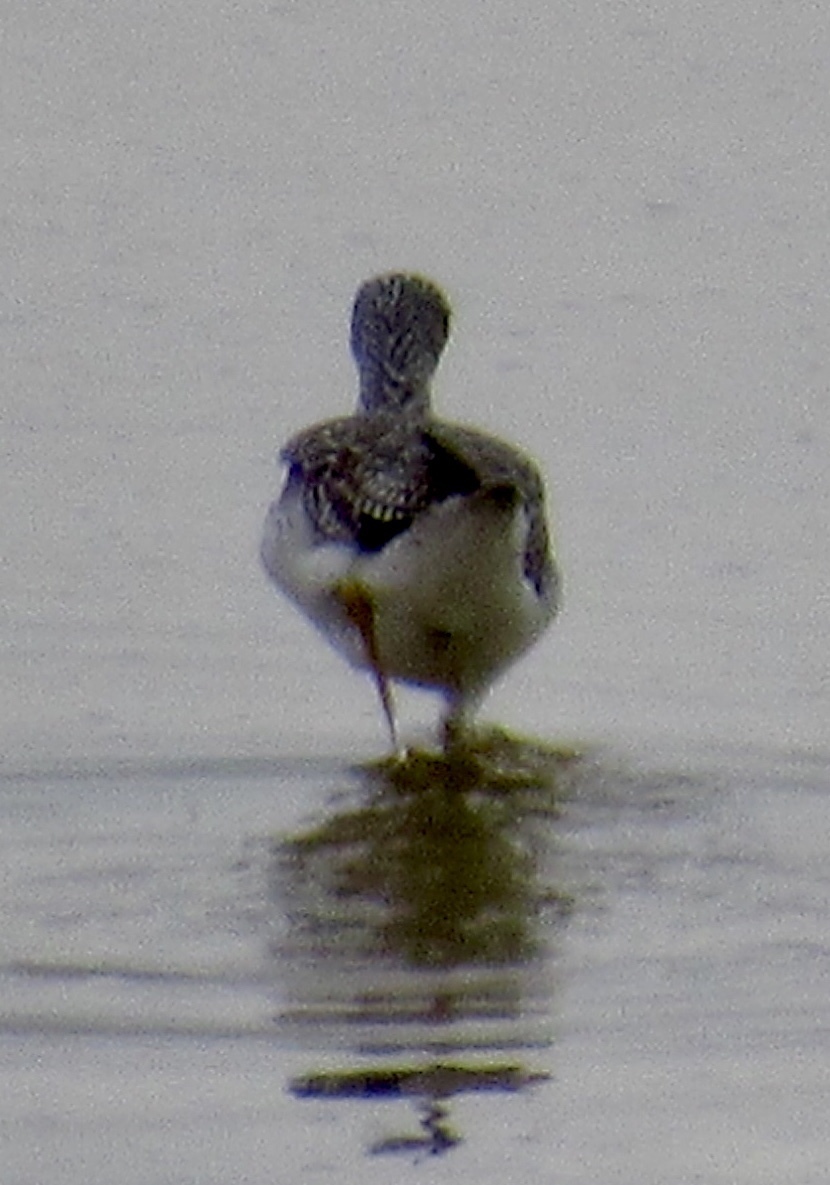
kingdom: Animalia
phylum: Chordata
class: Aves
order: Charadriiformes
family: Scolopacidae
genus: Tringa
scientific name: Tringa melanoleuca
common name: Greater yellowlegs
